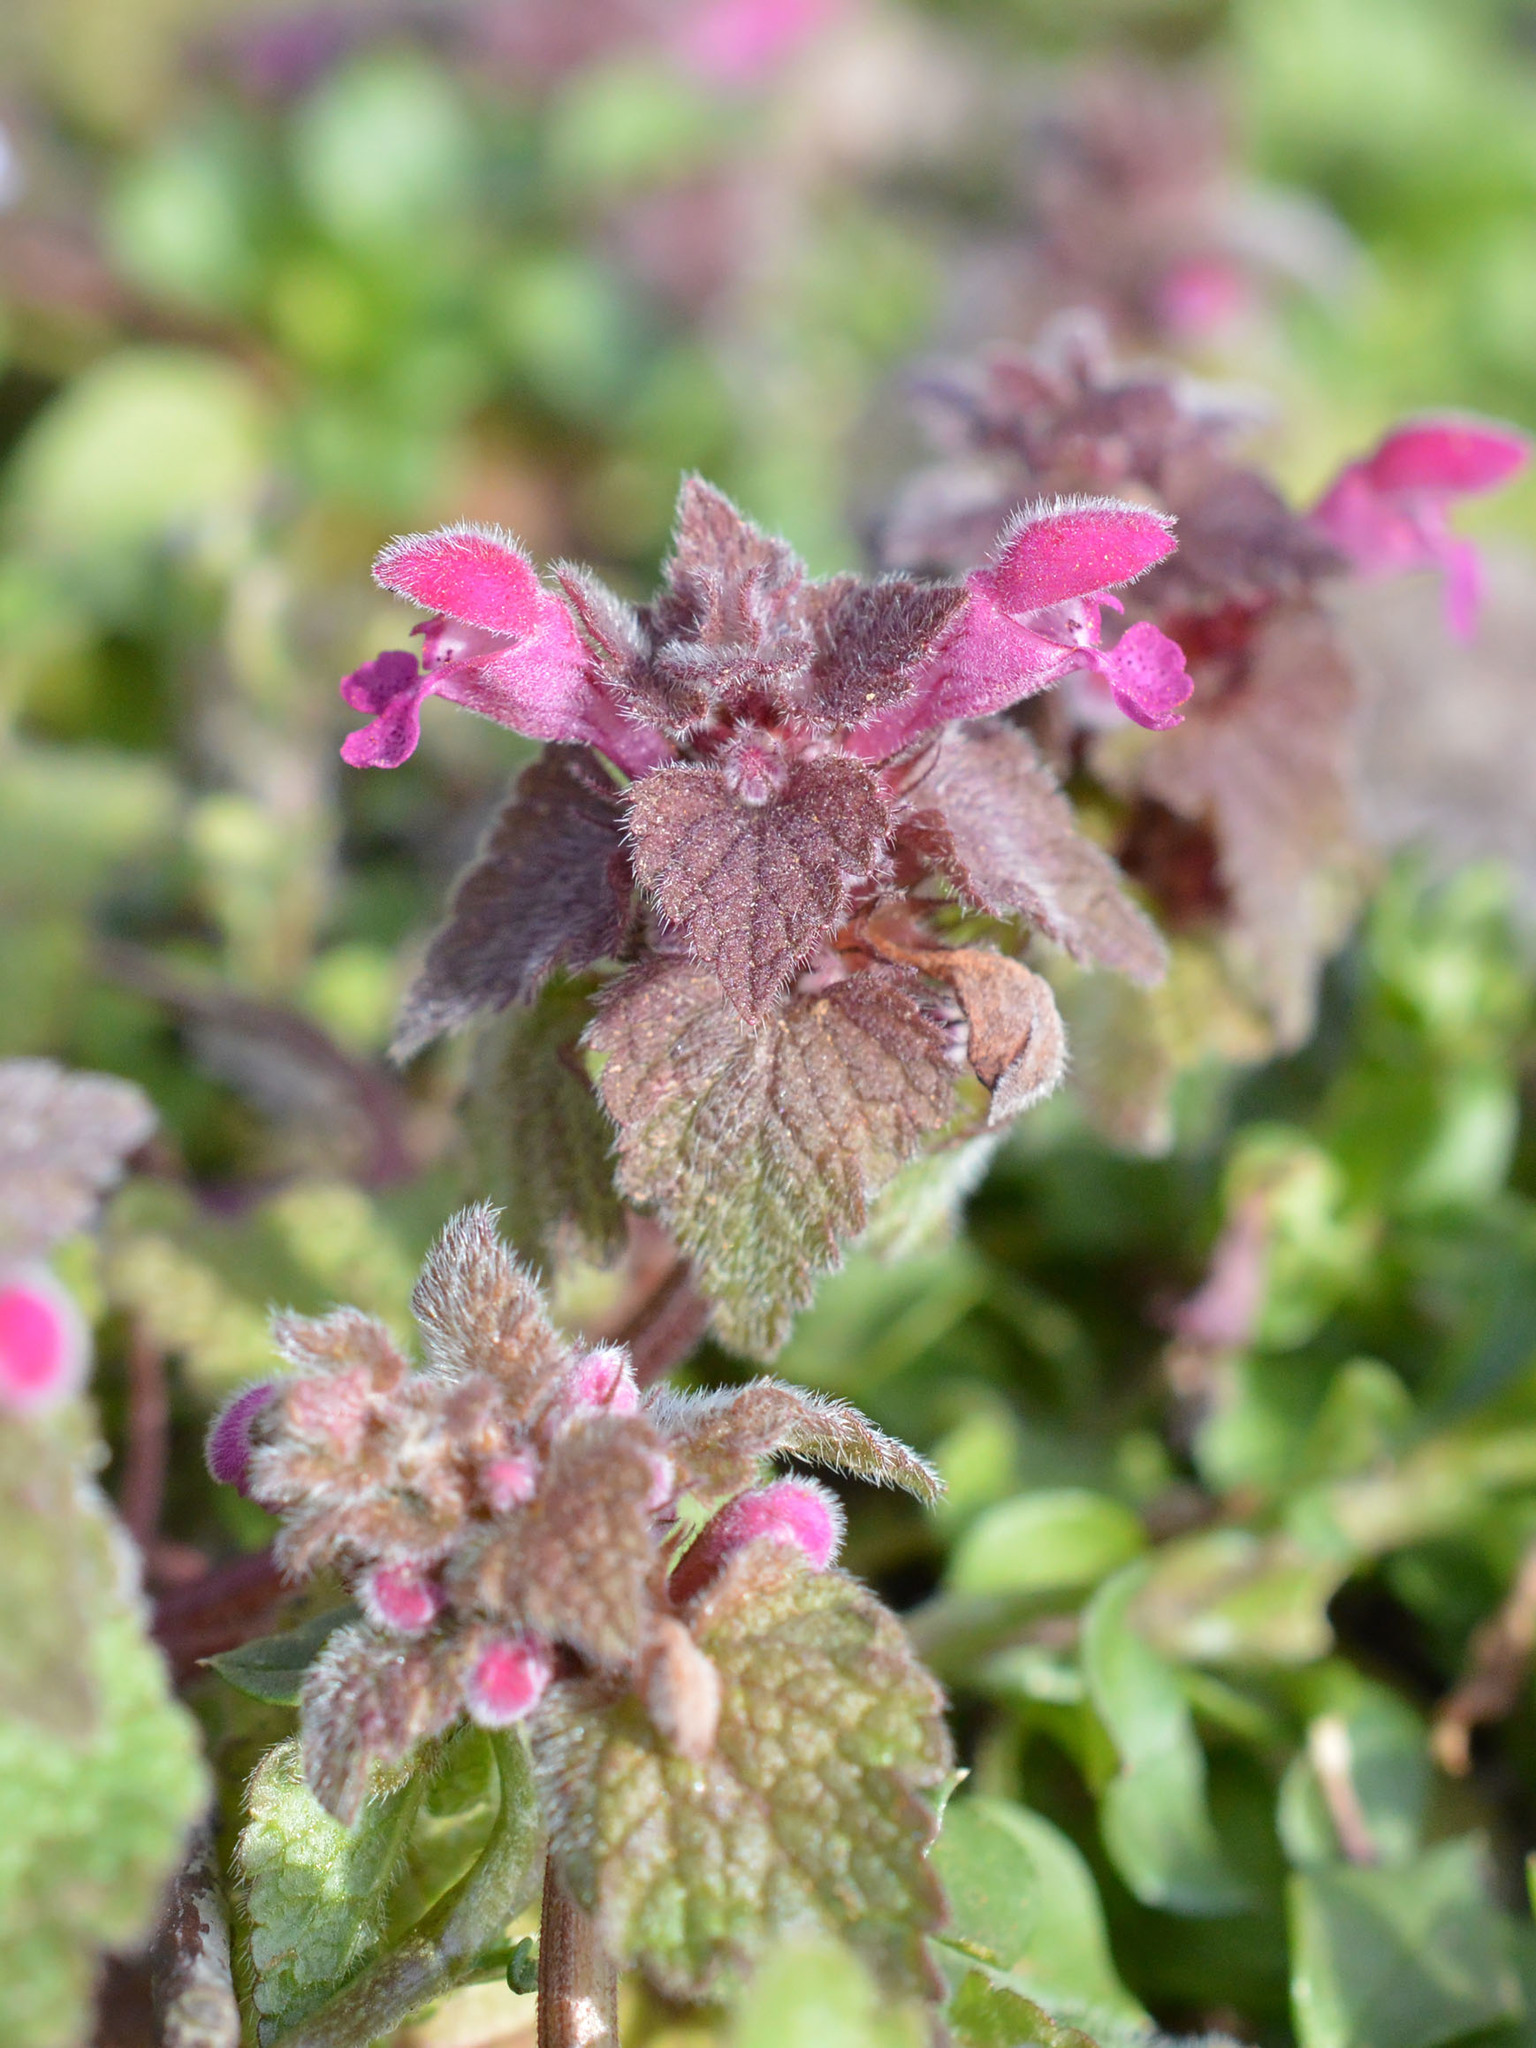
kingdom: Plantae
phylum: Tracheophyta
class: Magnoliopsida
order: Lamiales
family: Lamiaceae
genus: Lamium
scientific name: Lamium purpureum
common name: Red dead-nettle
